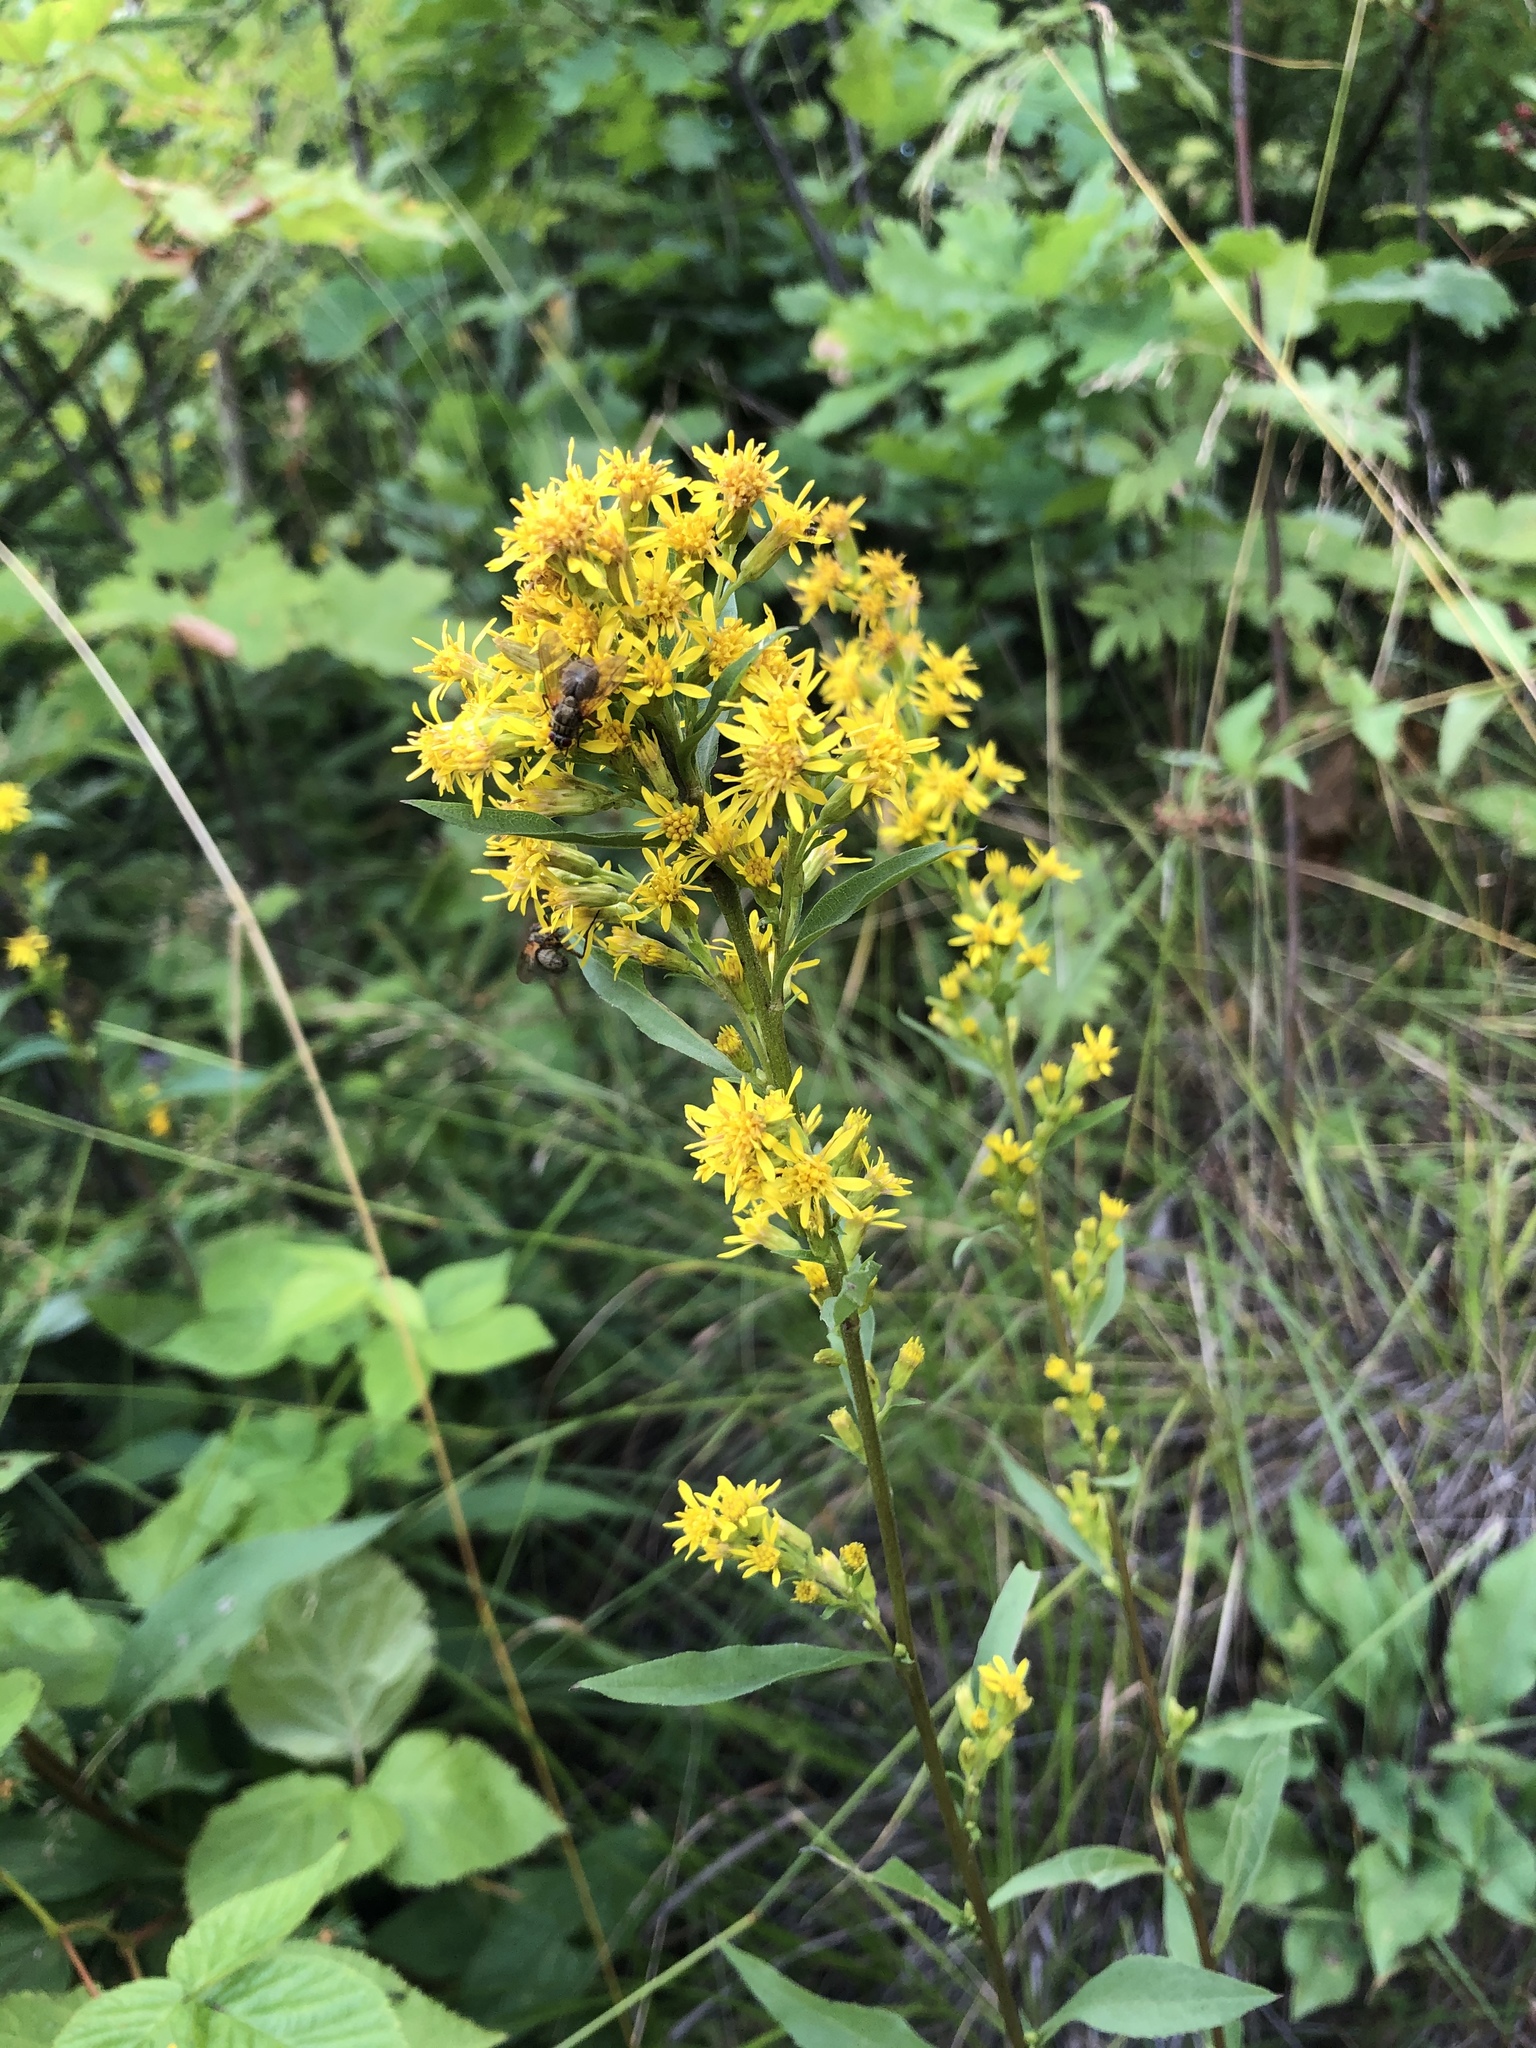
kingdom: Plantae
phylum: Tracheophyta
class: Magnoliopsida
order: Asterales
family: Asteraceae
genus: Solidago
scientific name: Solidago virgaurea
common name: Goldenrod
